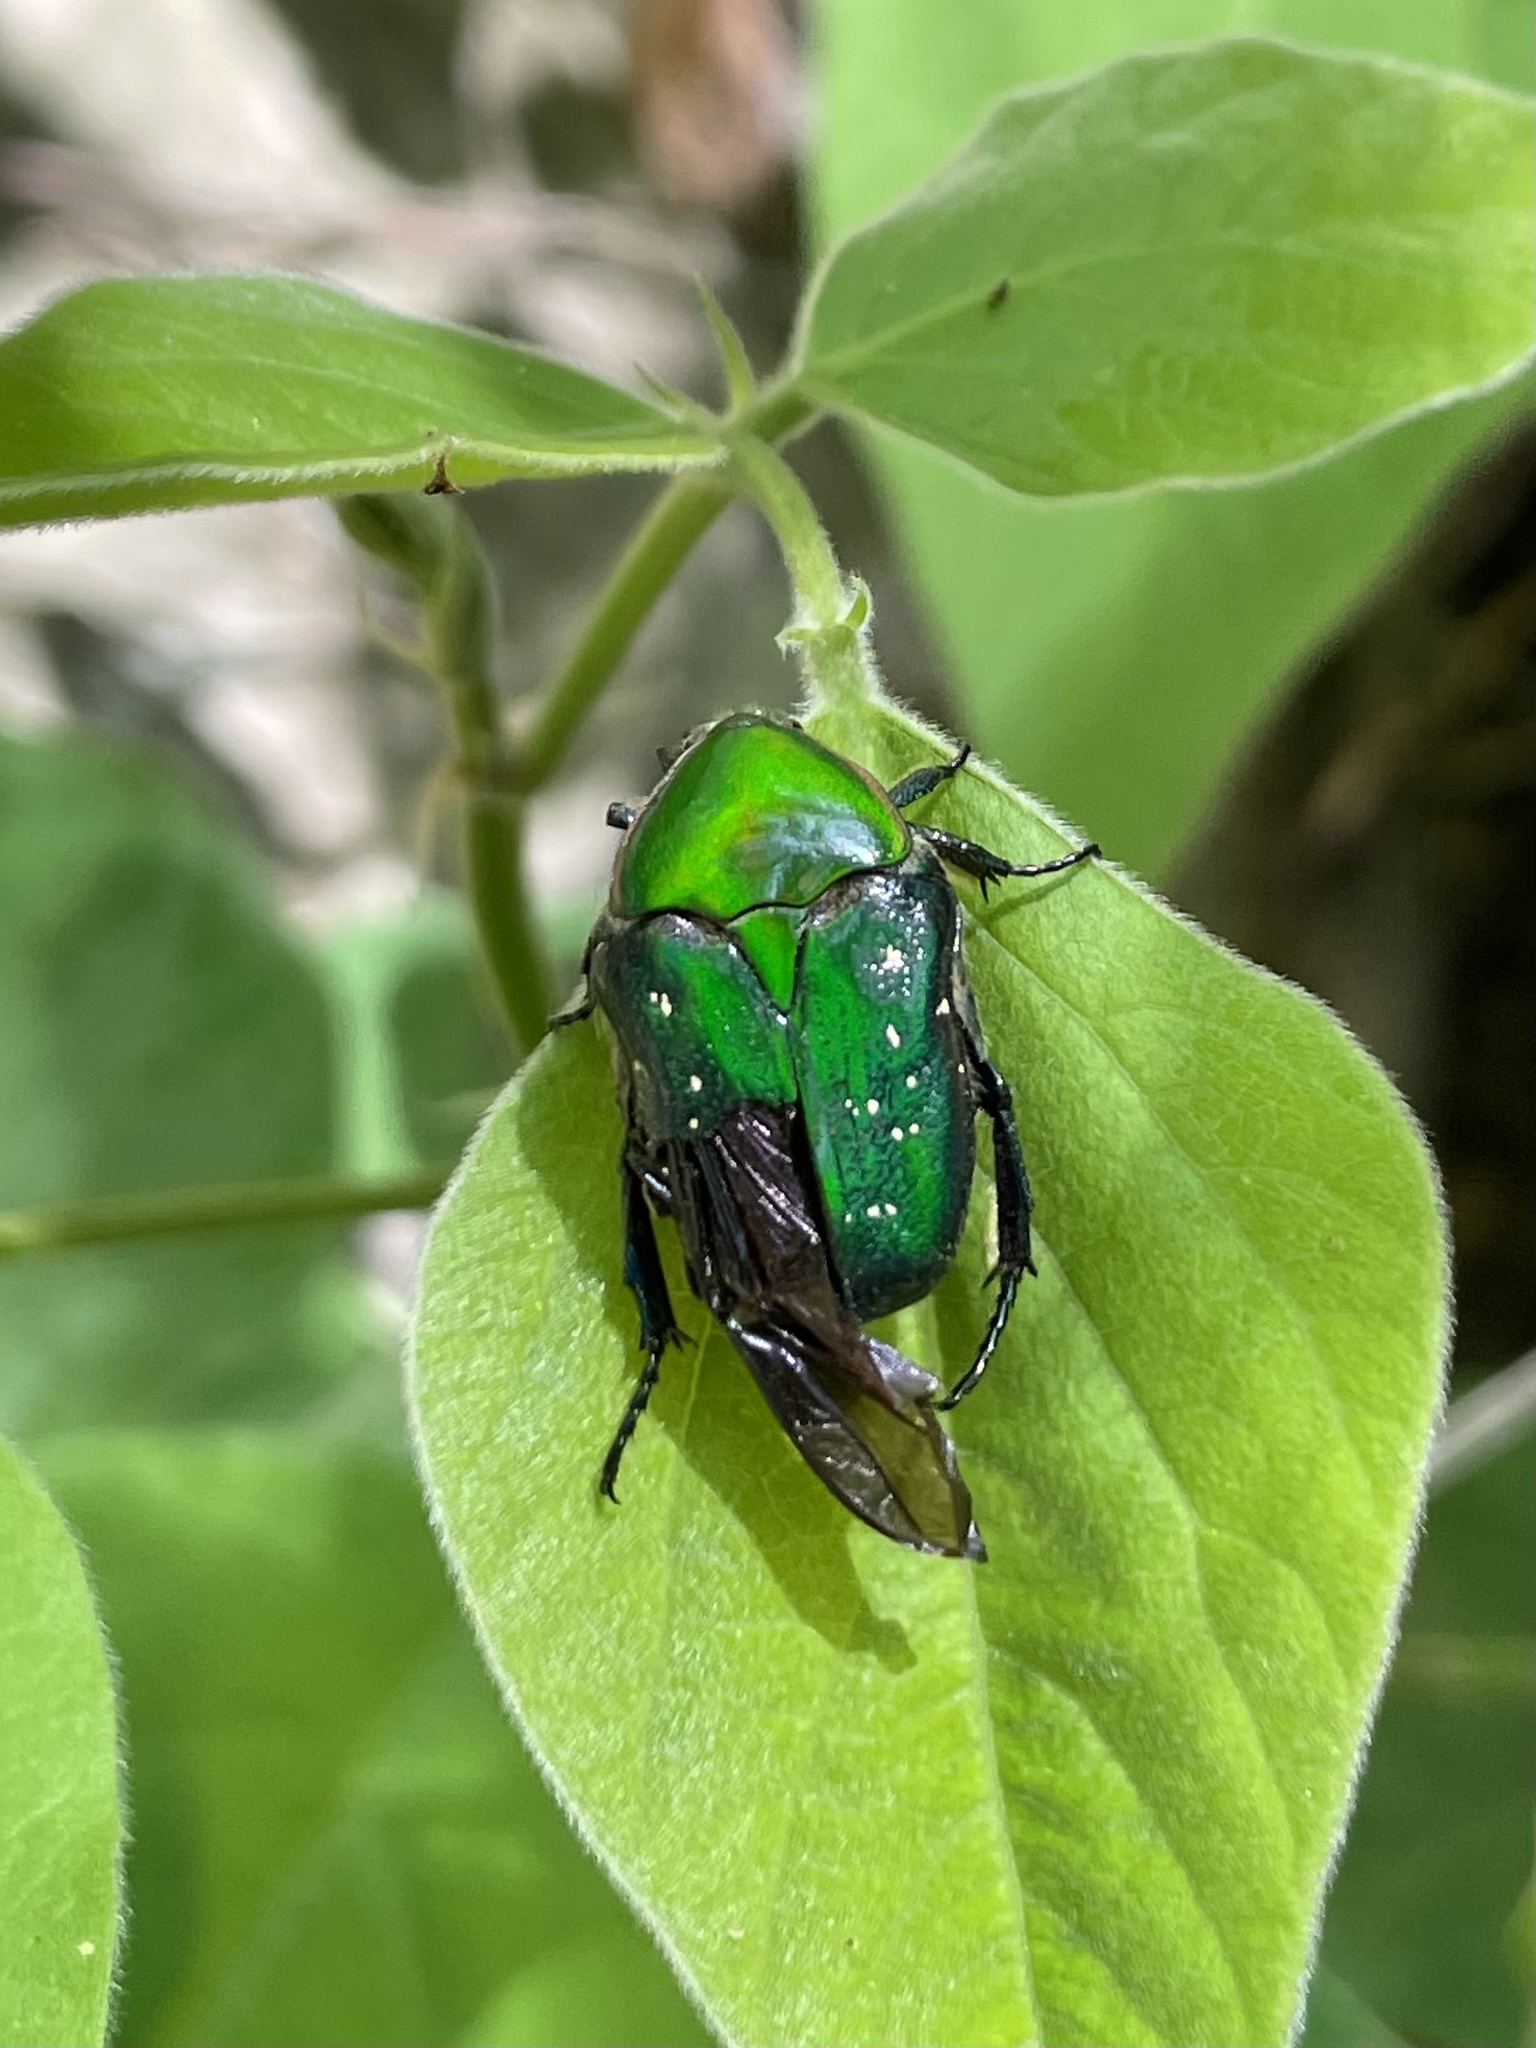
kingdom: Animalia
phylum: Arthropoda
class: Insecta
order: Coleoptera
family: Scarabaeidae
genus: Euphoria
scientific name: Euphoria fulgida
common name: Emerald euphoria
